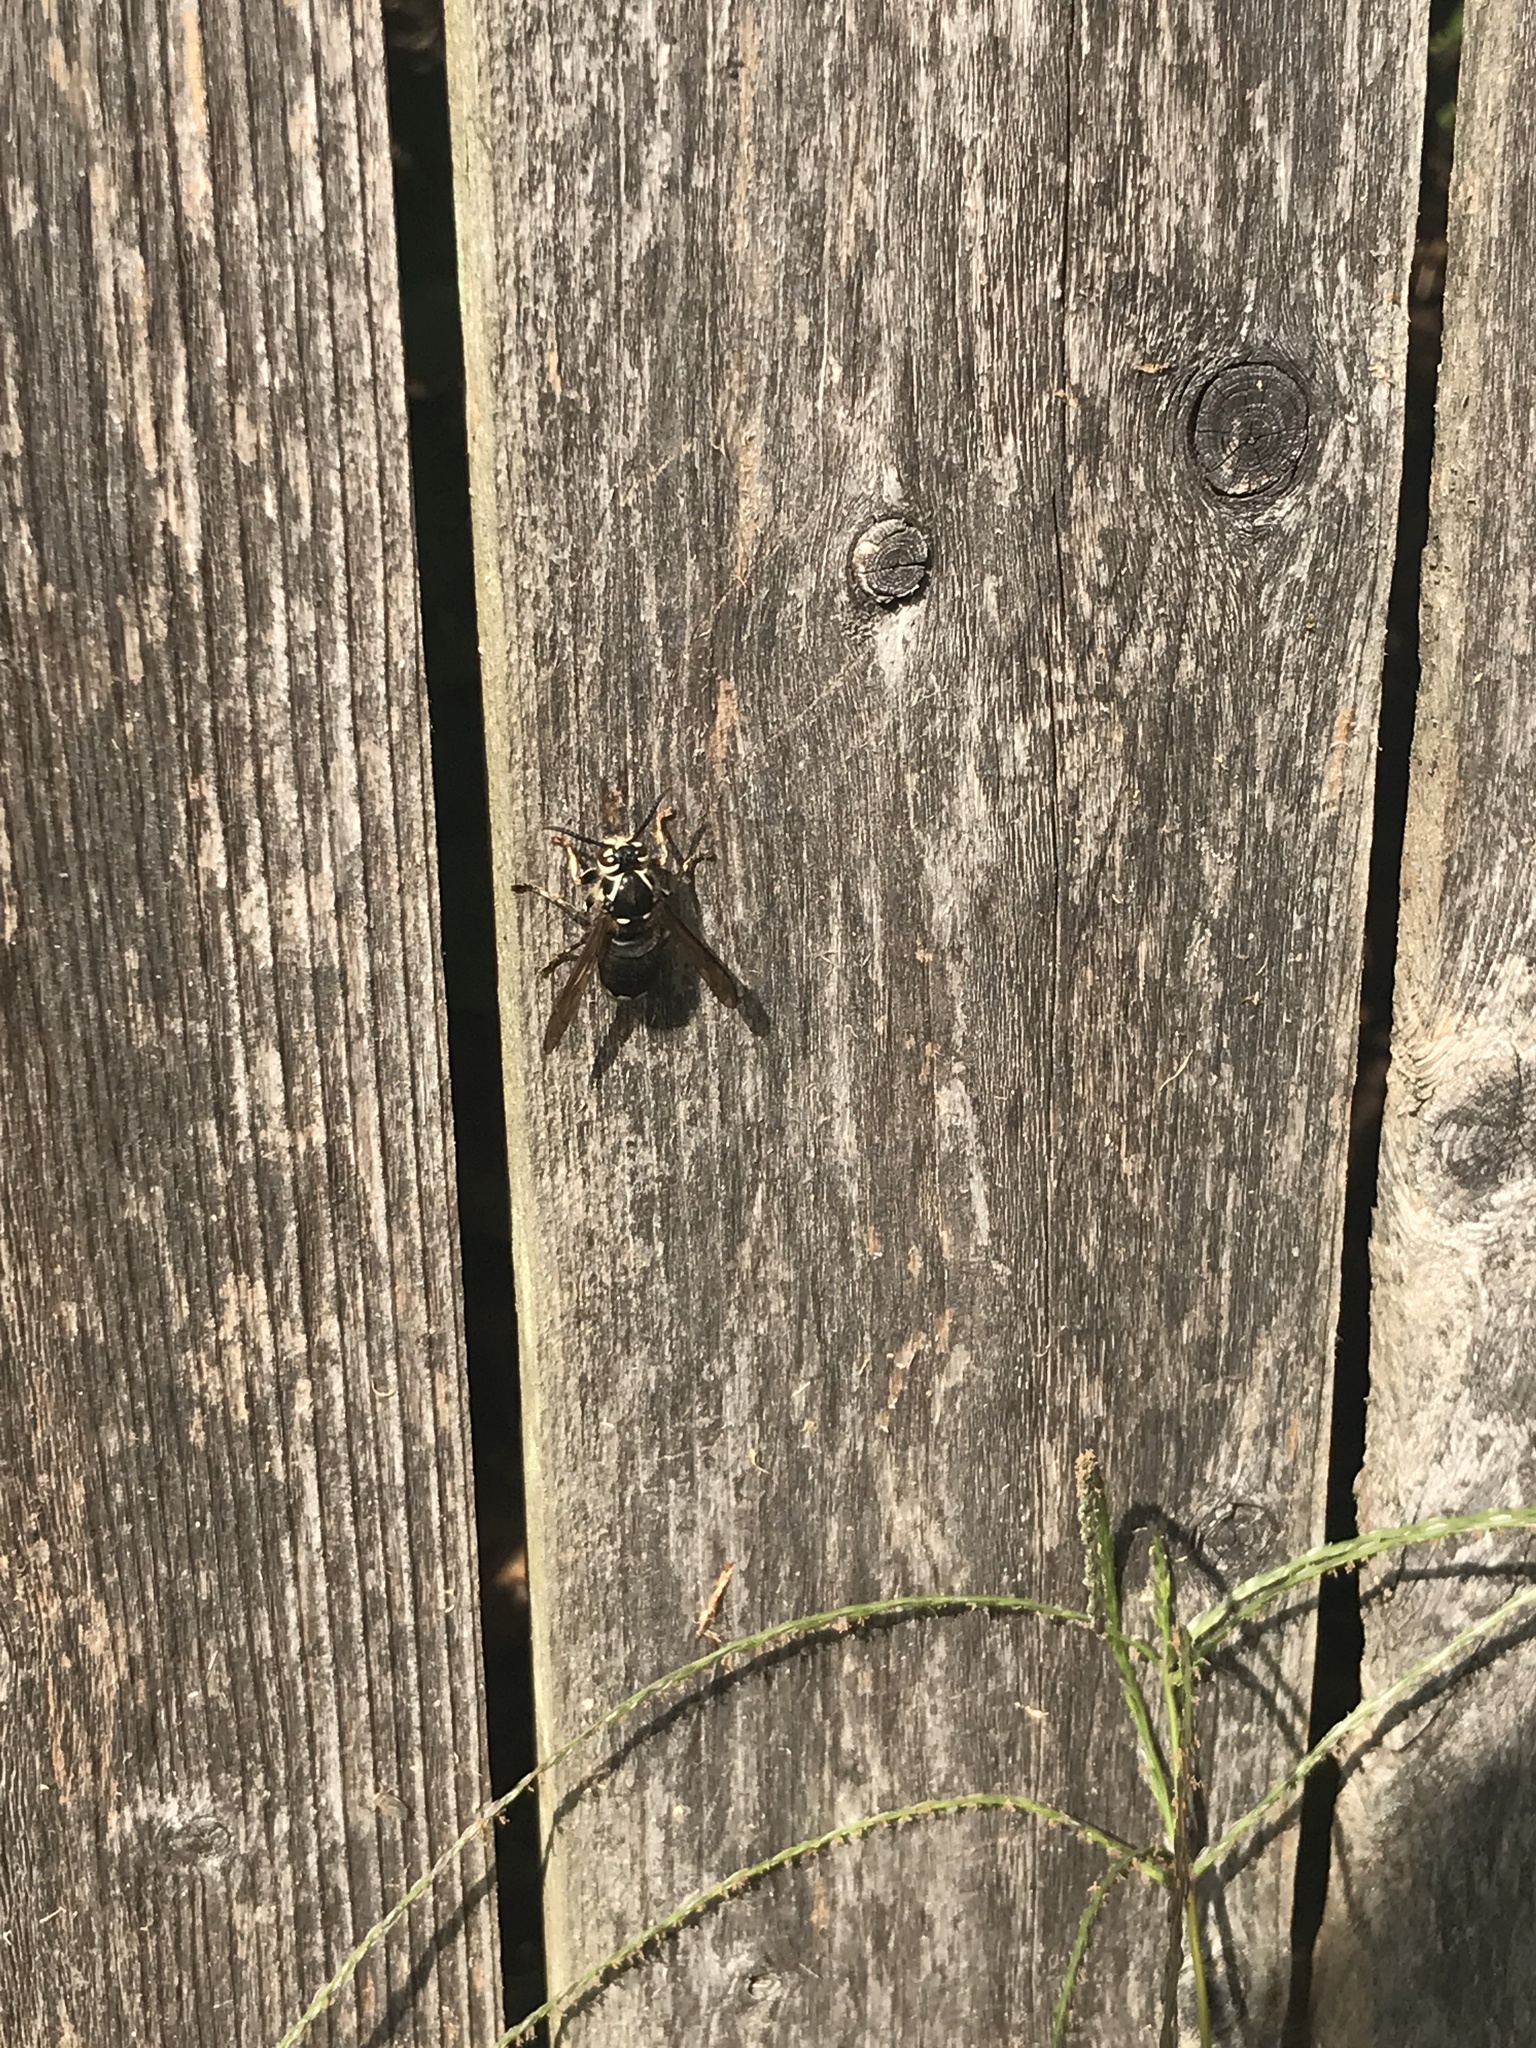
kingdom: Animalia
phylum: Arthropoda
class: Insecta
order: Hymenoptera
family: Vespidae
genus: Dolichovespula
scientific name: Dolichovespula maculata
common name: Bald-faced hornet
